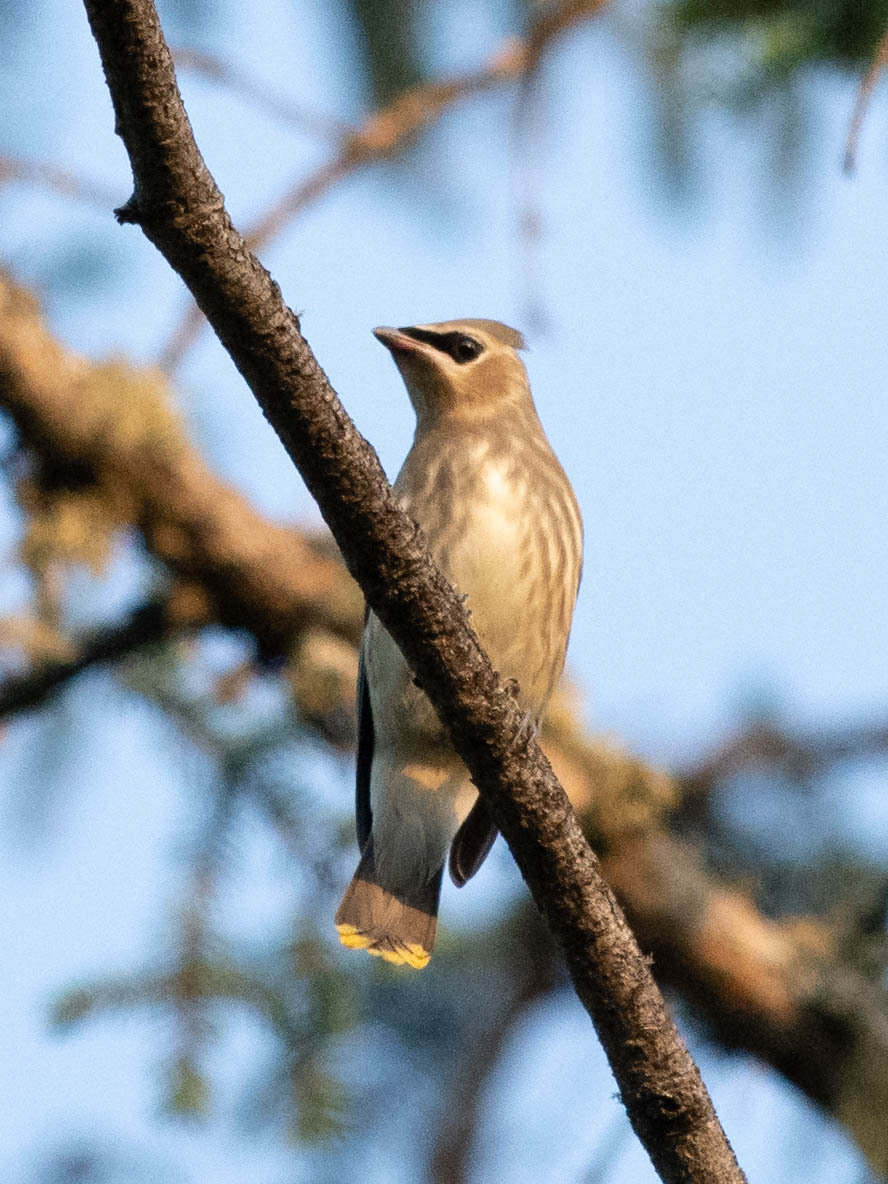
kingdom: Animalia
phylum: Chordata
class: Aves
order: Passeriformes
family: Bombycillidae
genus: Bombycilla
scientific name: Bombycilla cedrorum
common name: Cedar waxwing
